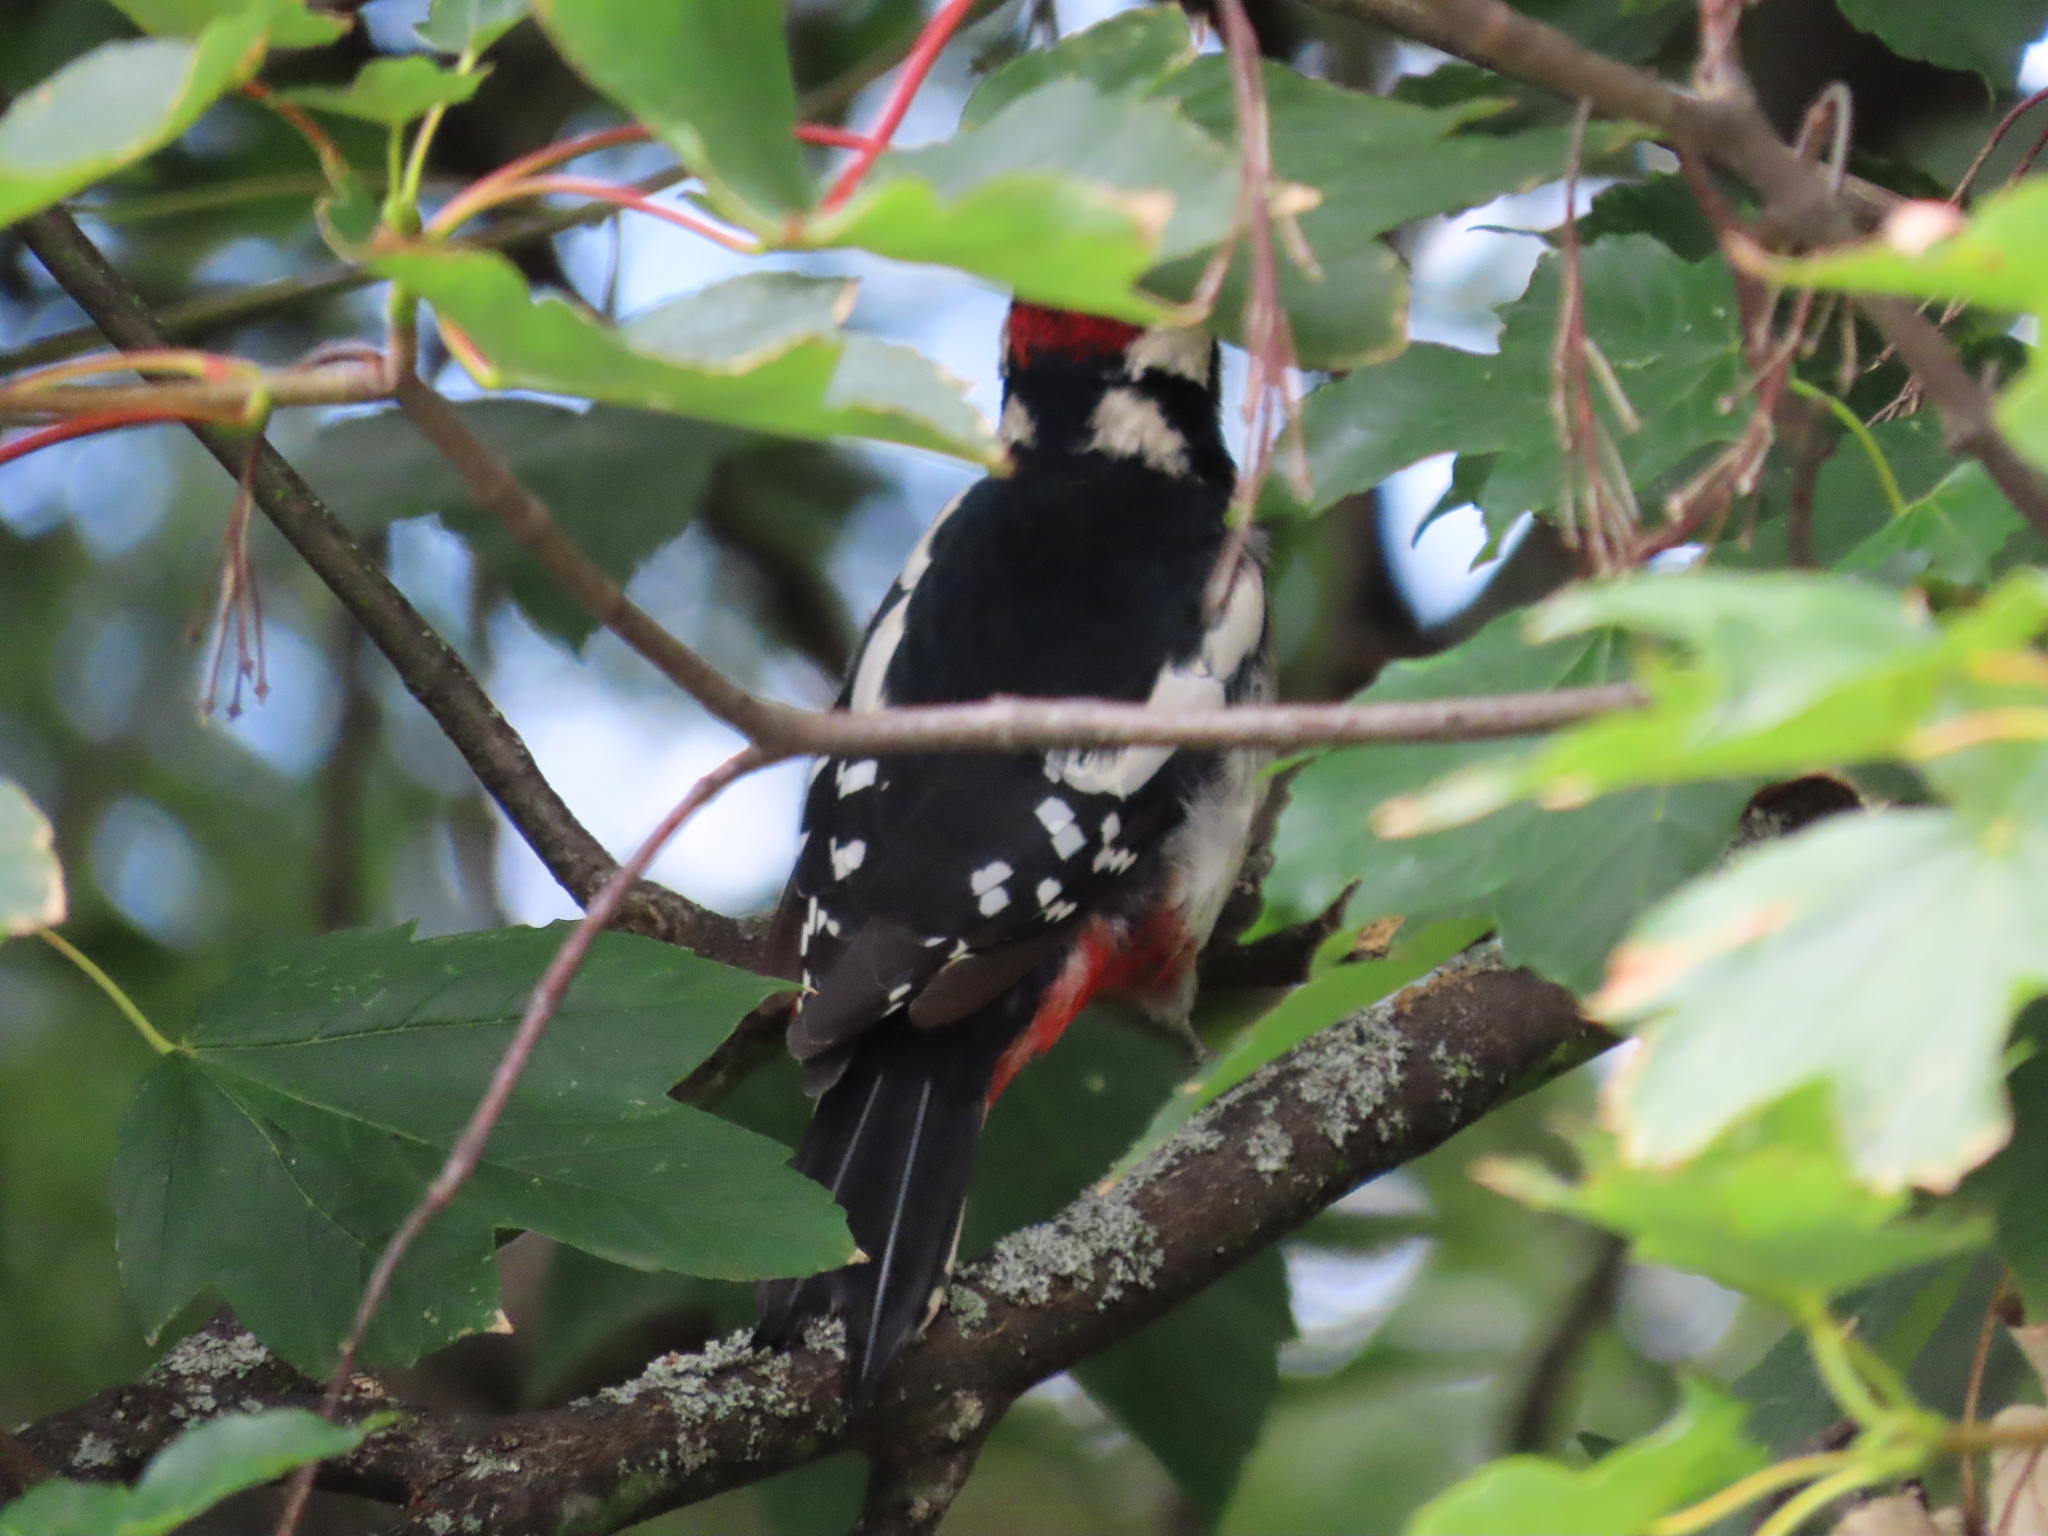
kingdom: Animalia
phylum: Chordata
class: Aves
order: Piciformes
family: Picidae
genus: Dendrocopos
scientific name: Dendrocopos major
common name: Great spotted woodpecker
